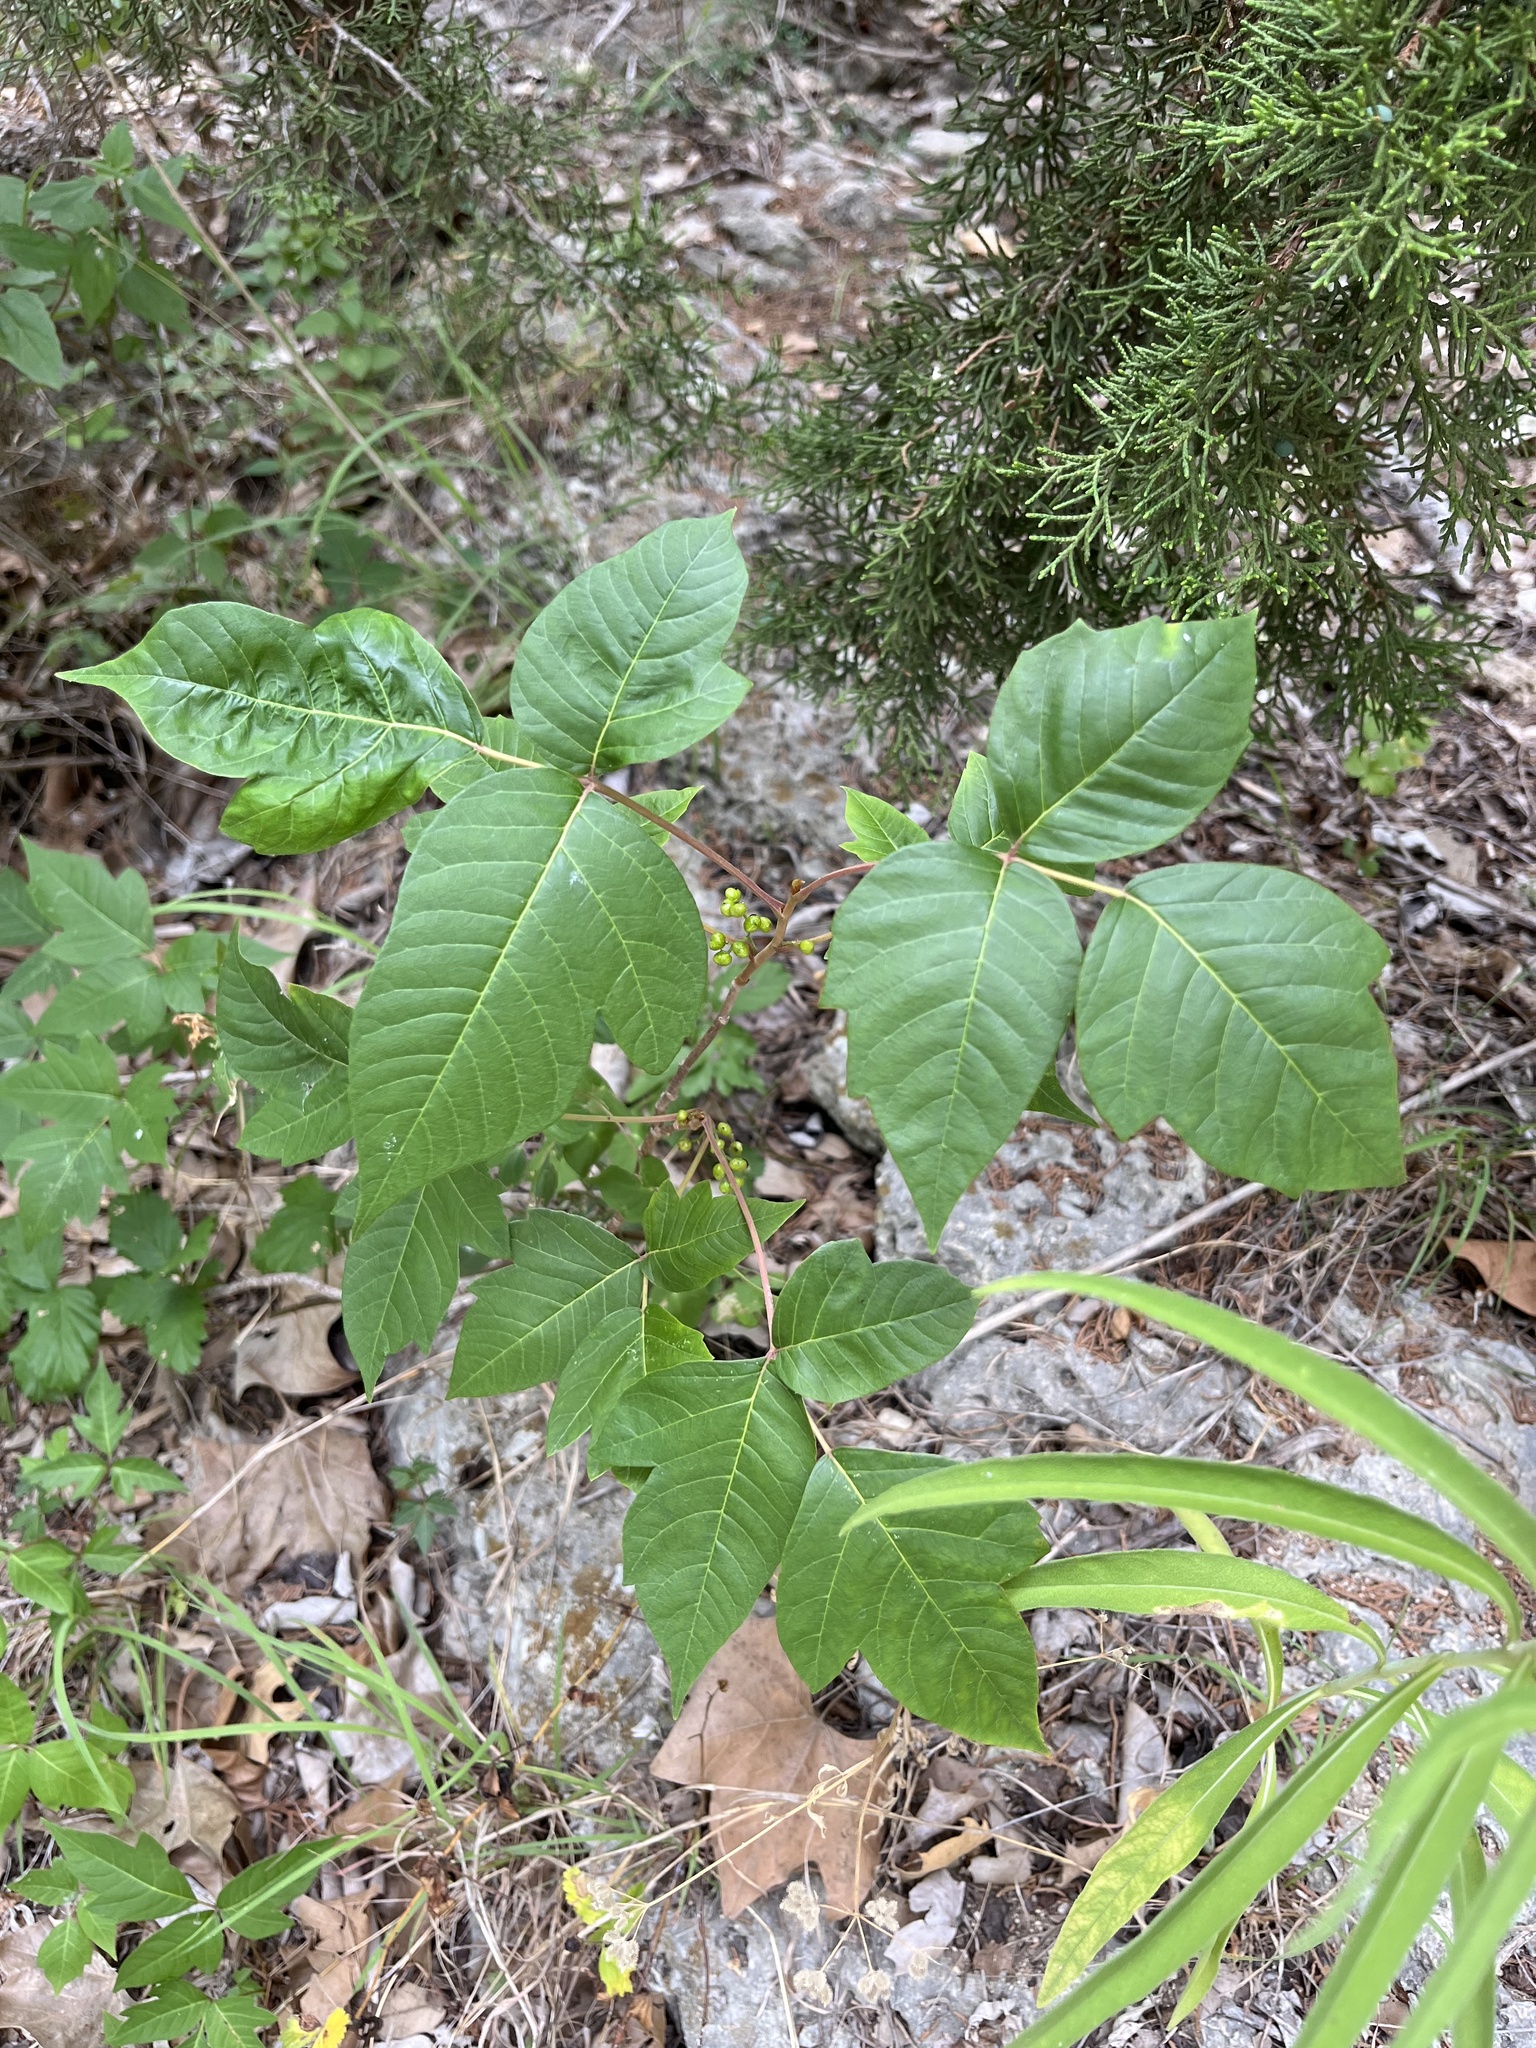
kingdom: Plantae
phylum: Tracheophyta
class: Magnoliopsida
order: Sapindales
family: Anacardiaceae
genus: Toxicodendron
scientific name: Toxicodendron radicans
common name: Poison ivy
